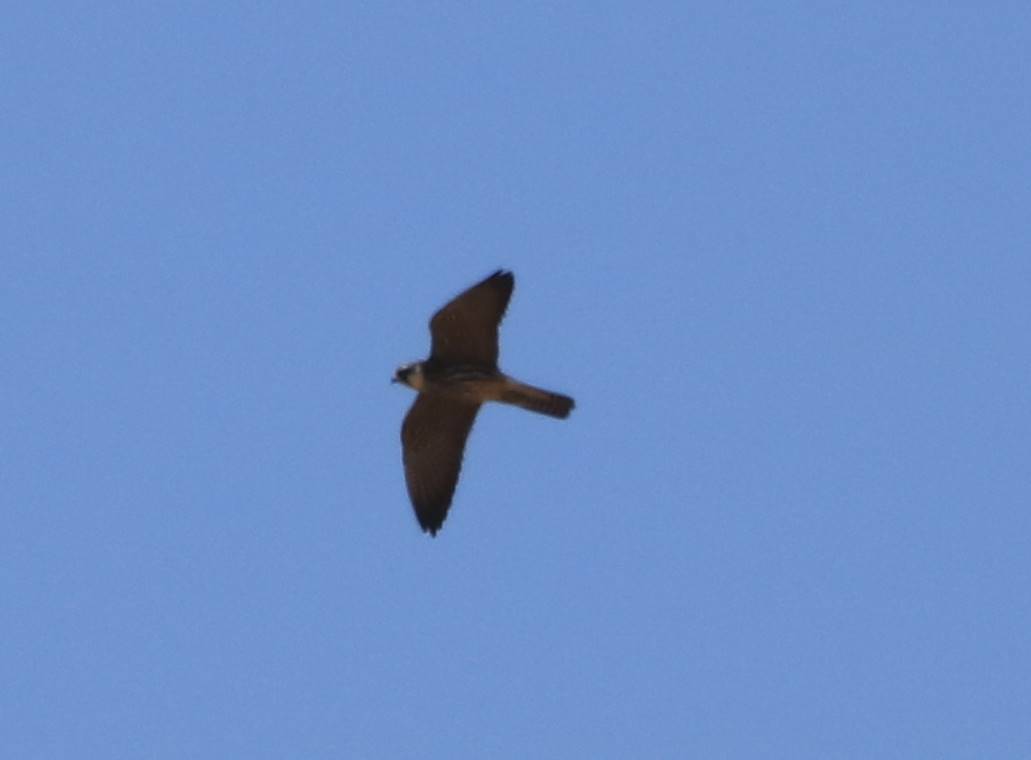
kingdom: Animalia
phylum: Chordata
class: Aves
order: Falconiformes
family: Falconidae
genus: Falco
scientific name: Falco subbuteo
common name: Eurasian hobby
